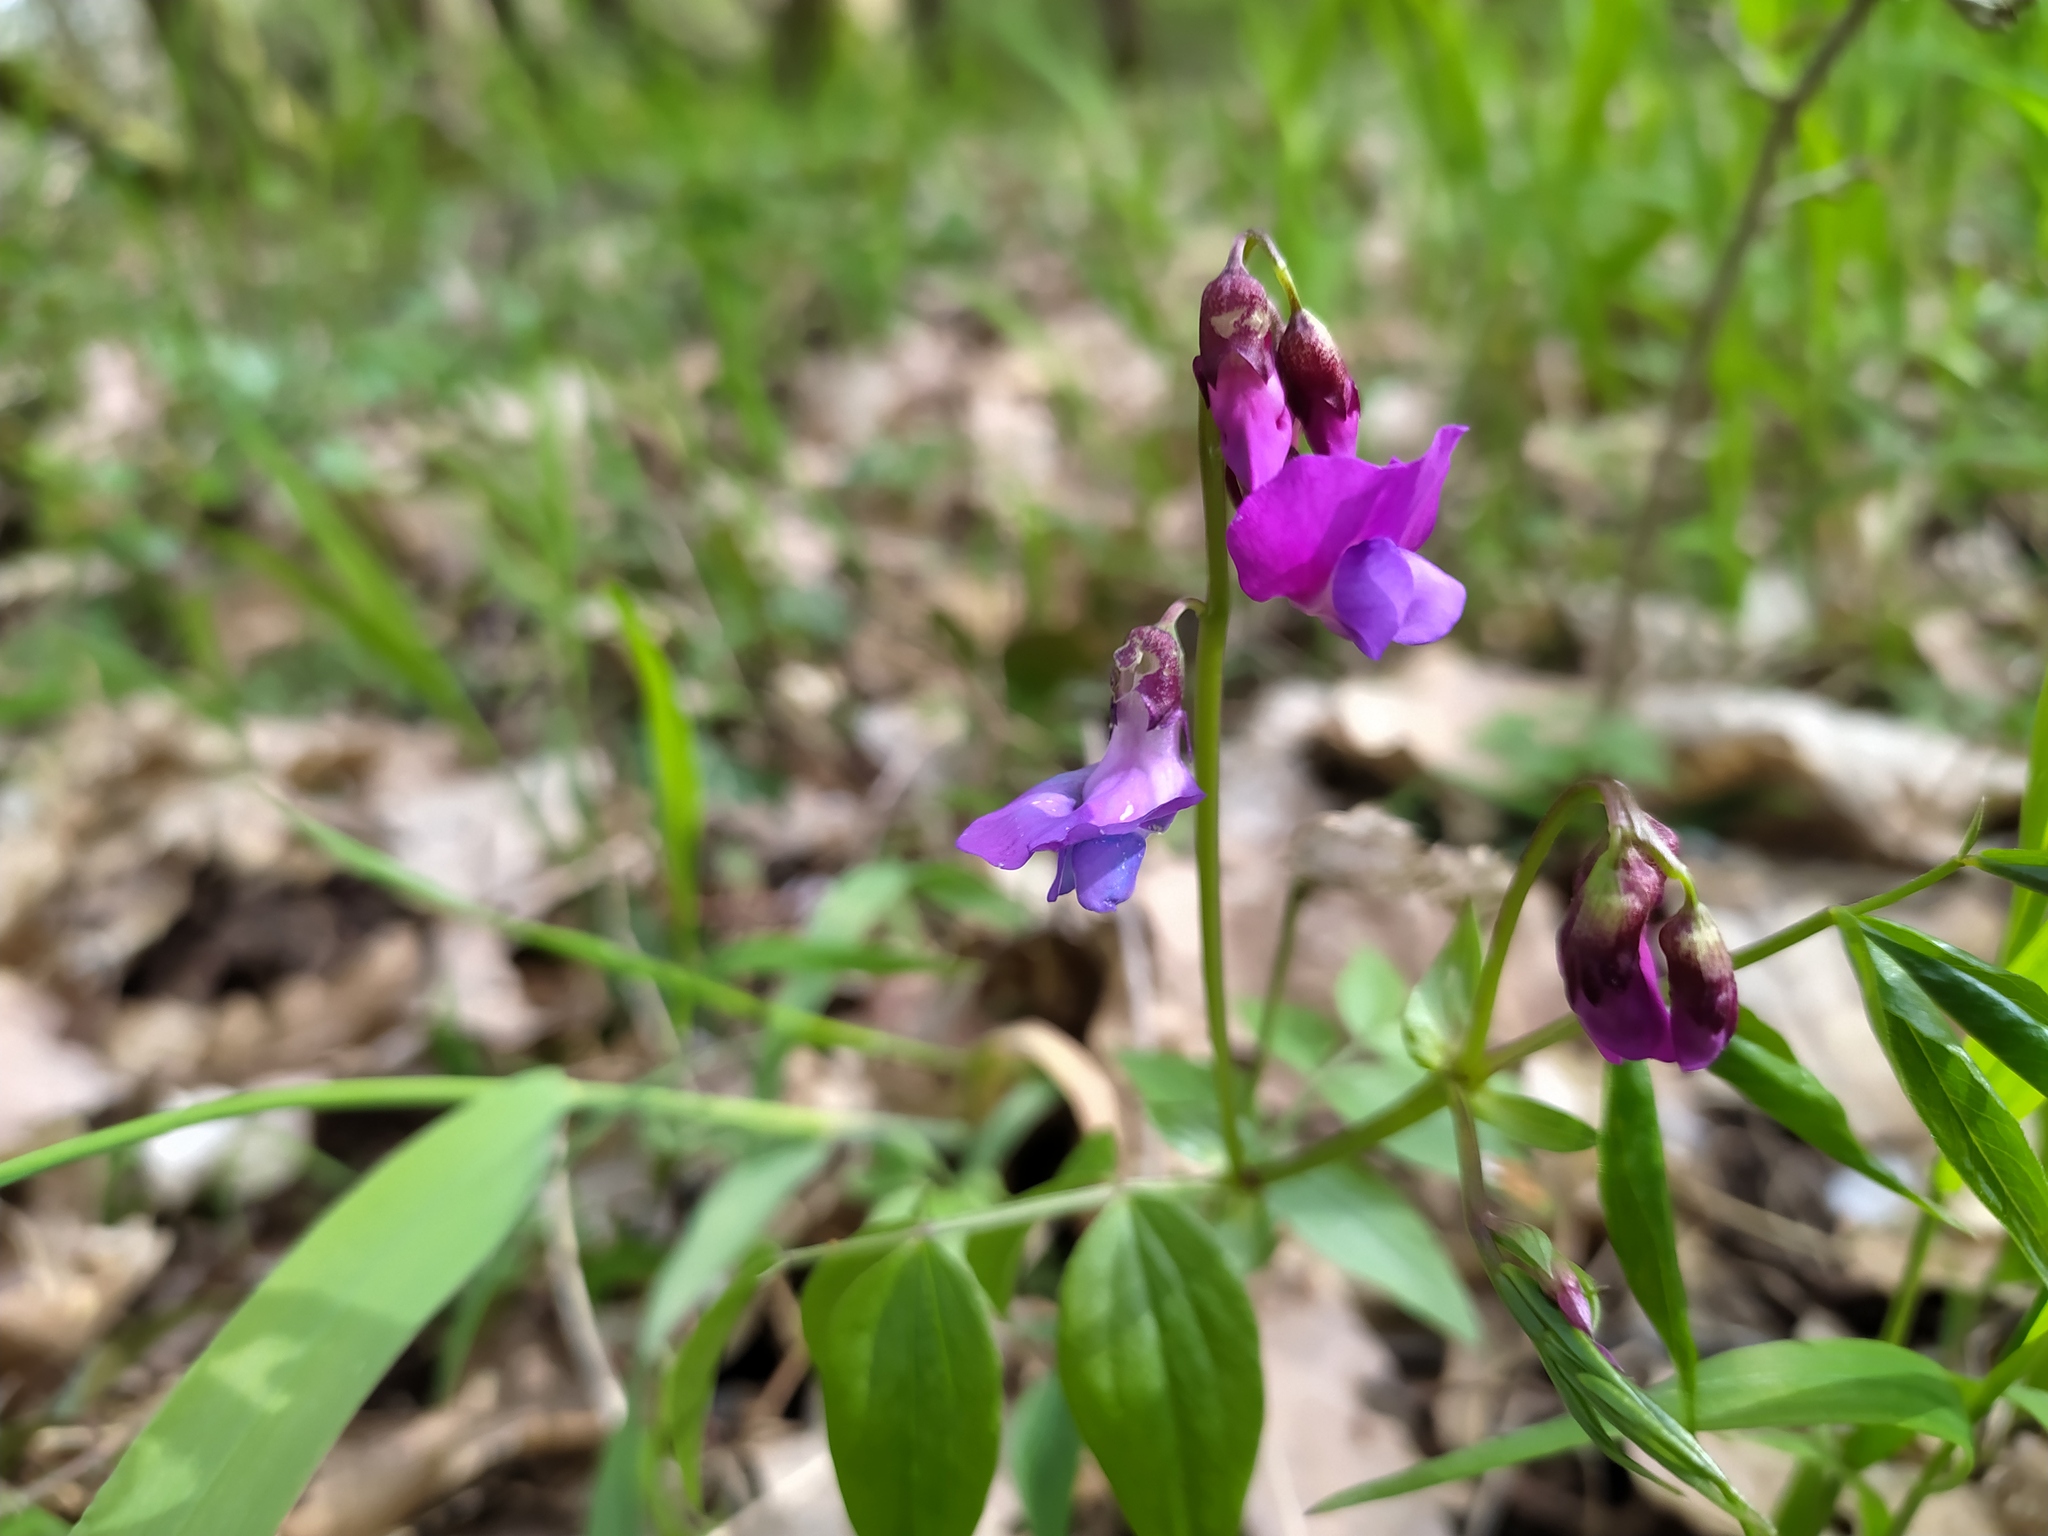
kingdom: Plantae
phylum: Tracheophyta
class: Magnoliopsida
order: Fabales
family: Fabaceae
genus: Lathyrus
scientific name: Lathyrus vernus
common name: Spring pea
